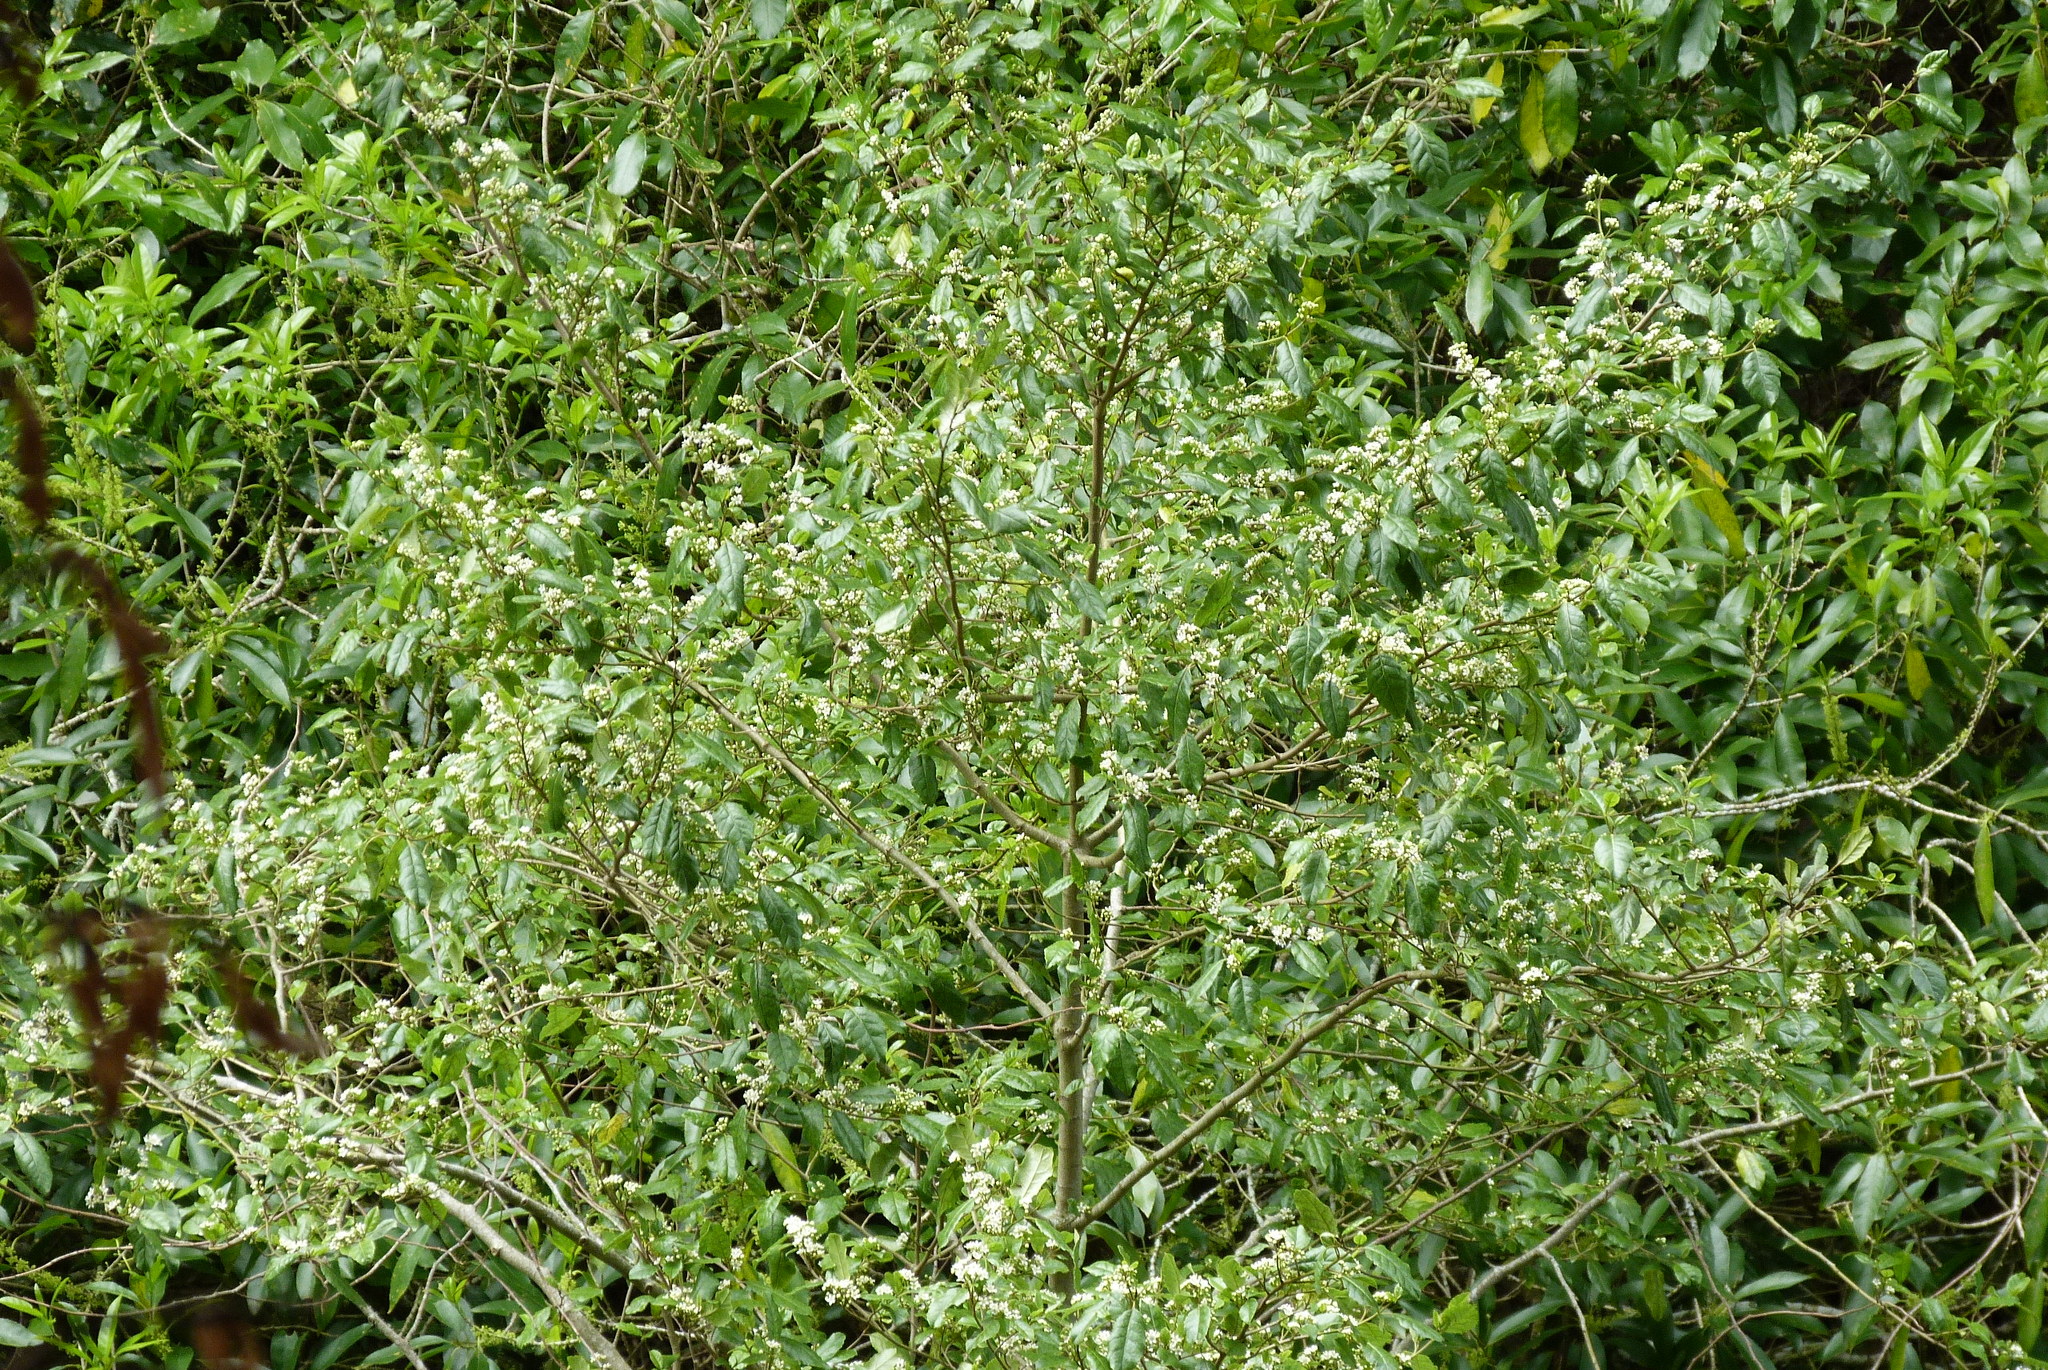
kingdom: Plantae
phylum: Tracheophyta
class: Magnoliopsida
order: Asterales
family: Rousseaceae
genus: Carpodetus
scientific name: Carpodetus serratus
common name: White mapau
